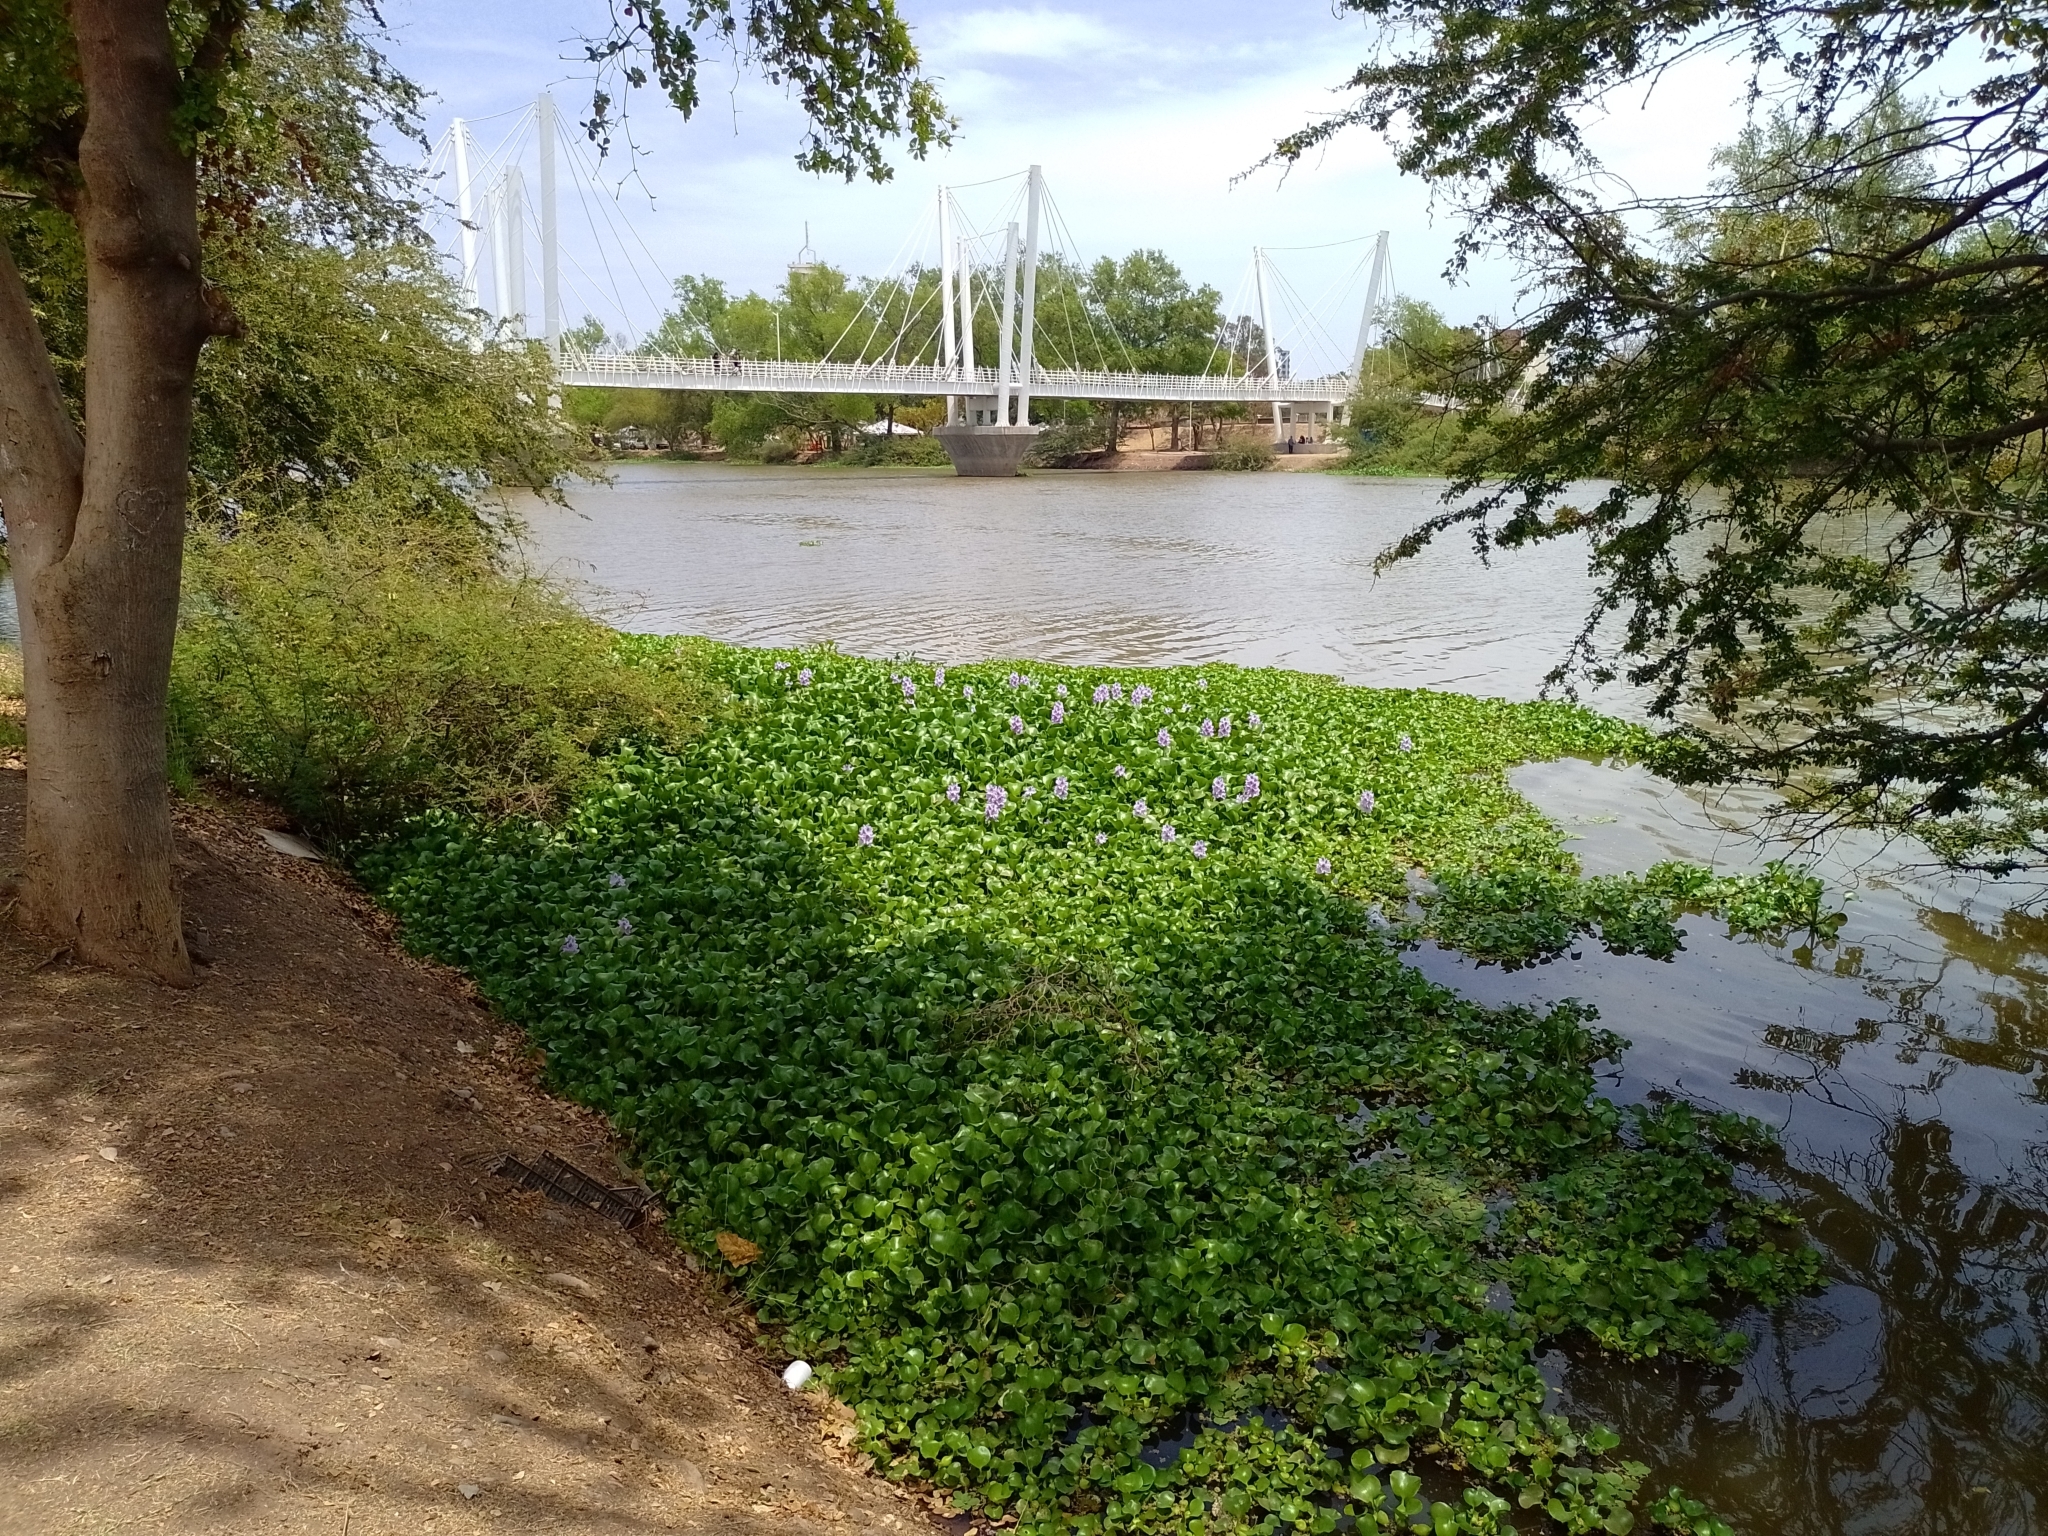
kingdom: Plantae
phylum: Tracheophyta
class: Liliopsida
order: Commelinales
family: Pontederiaceae
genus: Pontederia
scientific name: Pontederia crassipes
